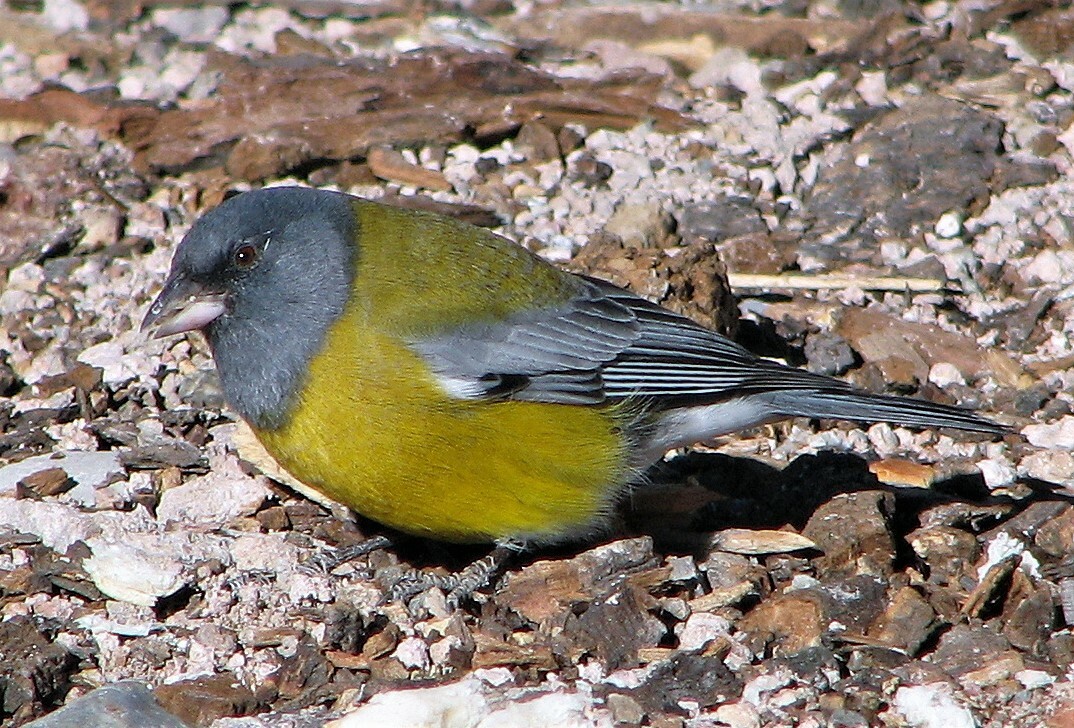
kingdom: Animalia
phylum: Chordata
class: Aves
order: Passeriformes
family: Thraupidae
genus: Phrygilus
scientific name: Phrygilus gayi
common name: Grey-hooded sierra finch
